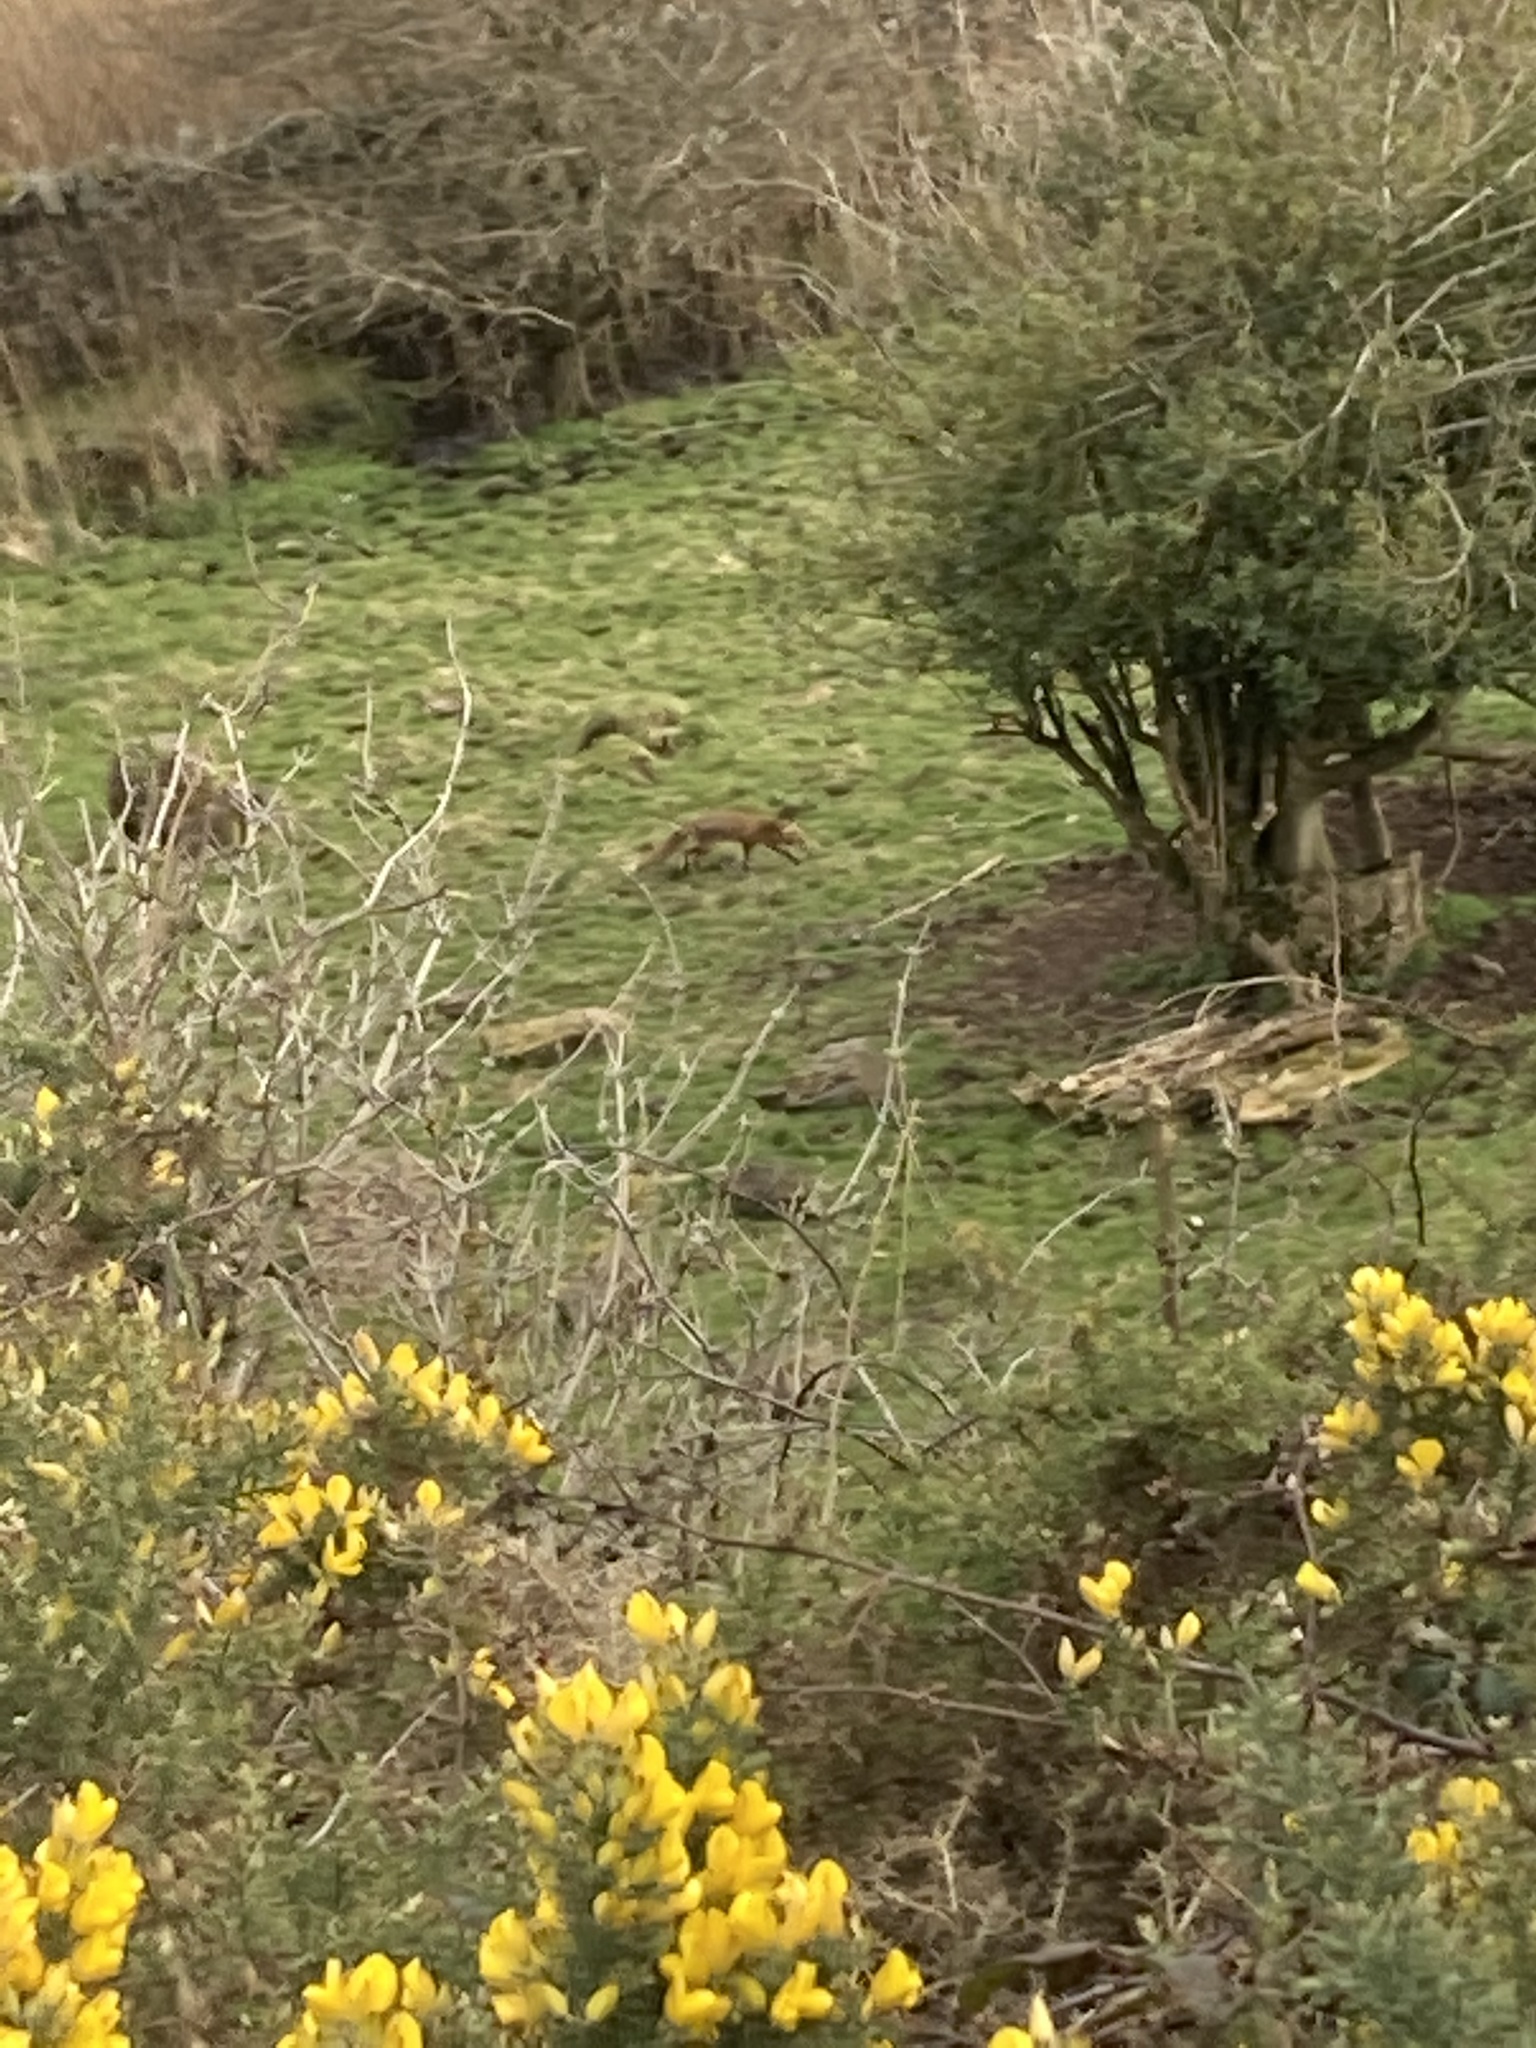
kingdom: Animalia
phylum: Chordata
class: Mammalia
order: Carnivora
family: Canidae
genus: Vulpes
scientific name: Vulpes vulpes
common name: Red fox
